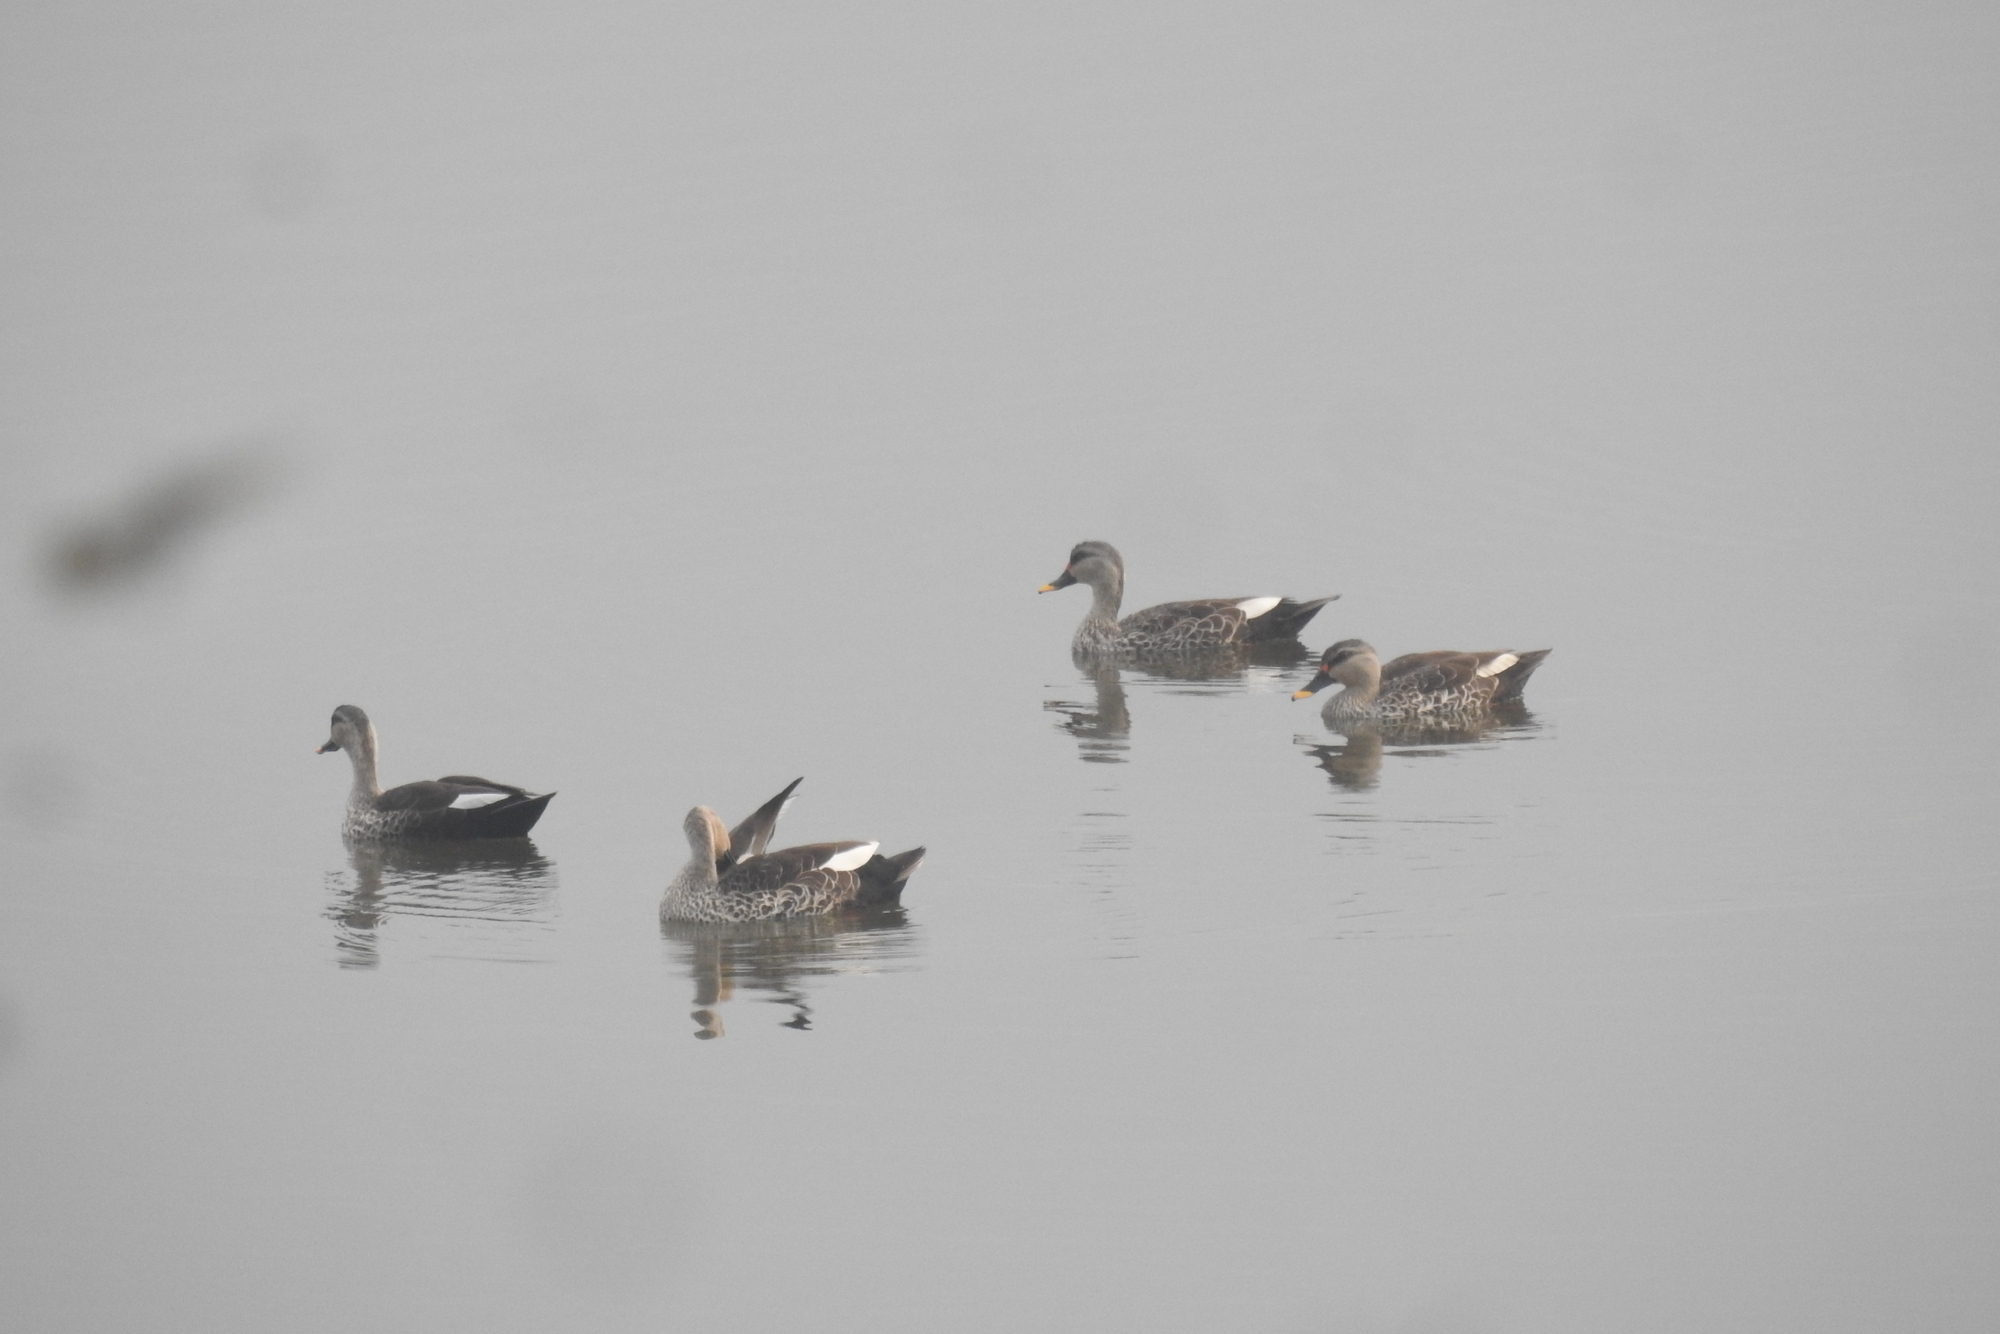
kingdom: Animalia
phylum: Chordata
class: Aves
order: Anseriformes
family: Anatidae
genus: Anas
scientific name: Anas poecilorhyncha
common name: Indian spot-billed duck
